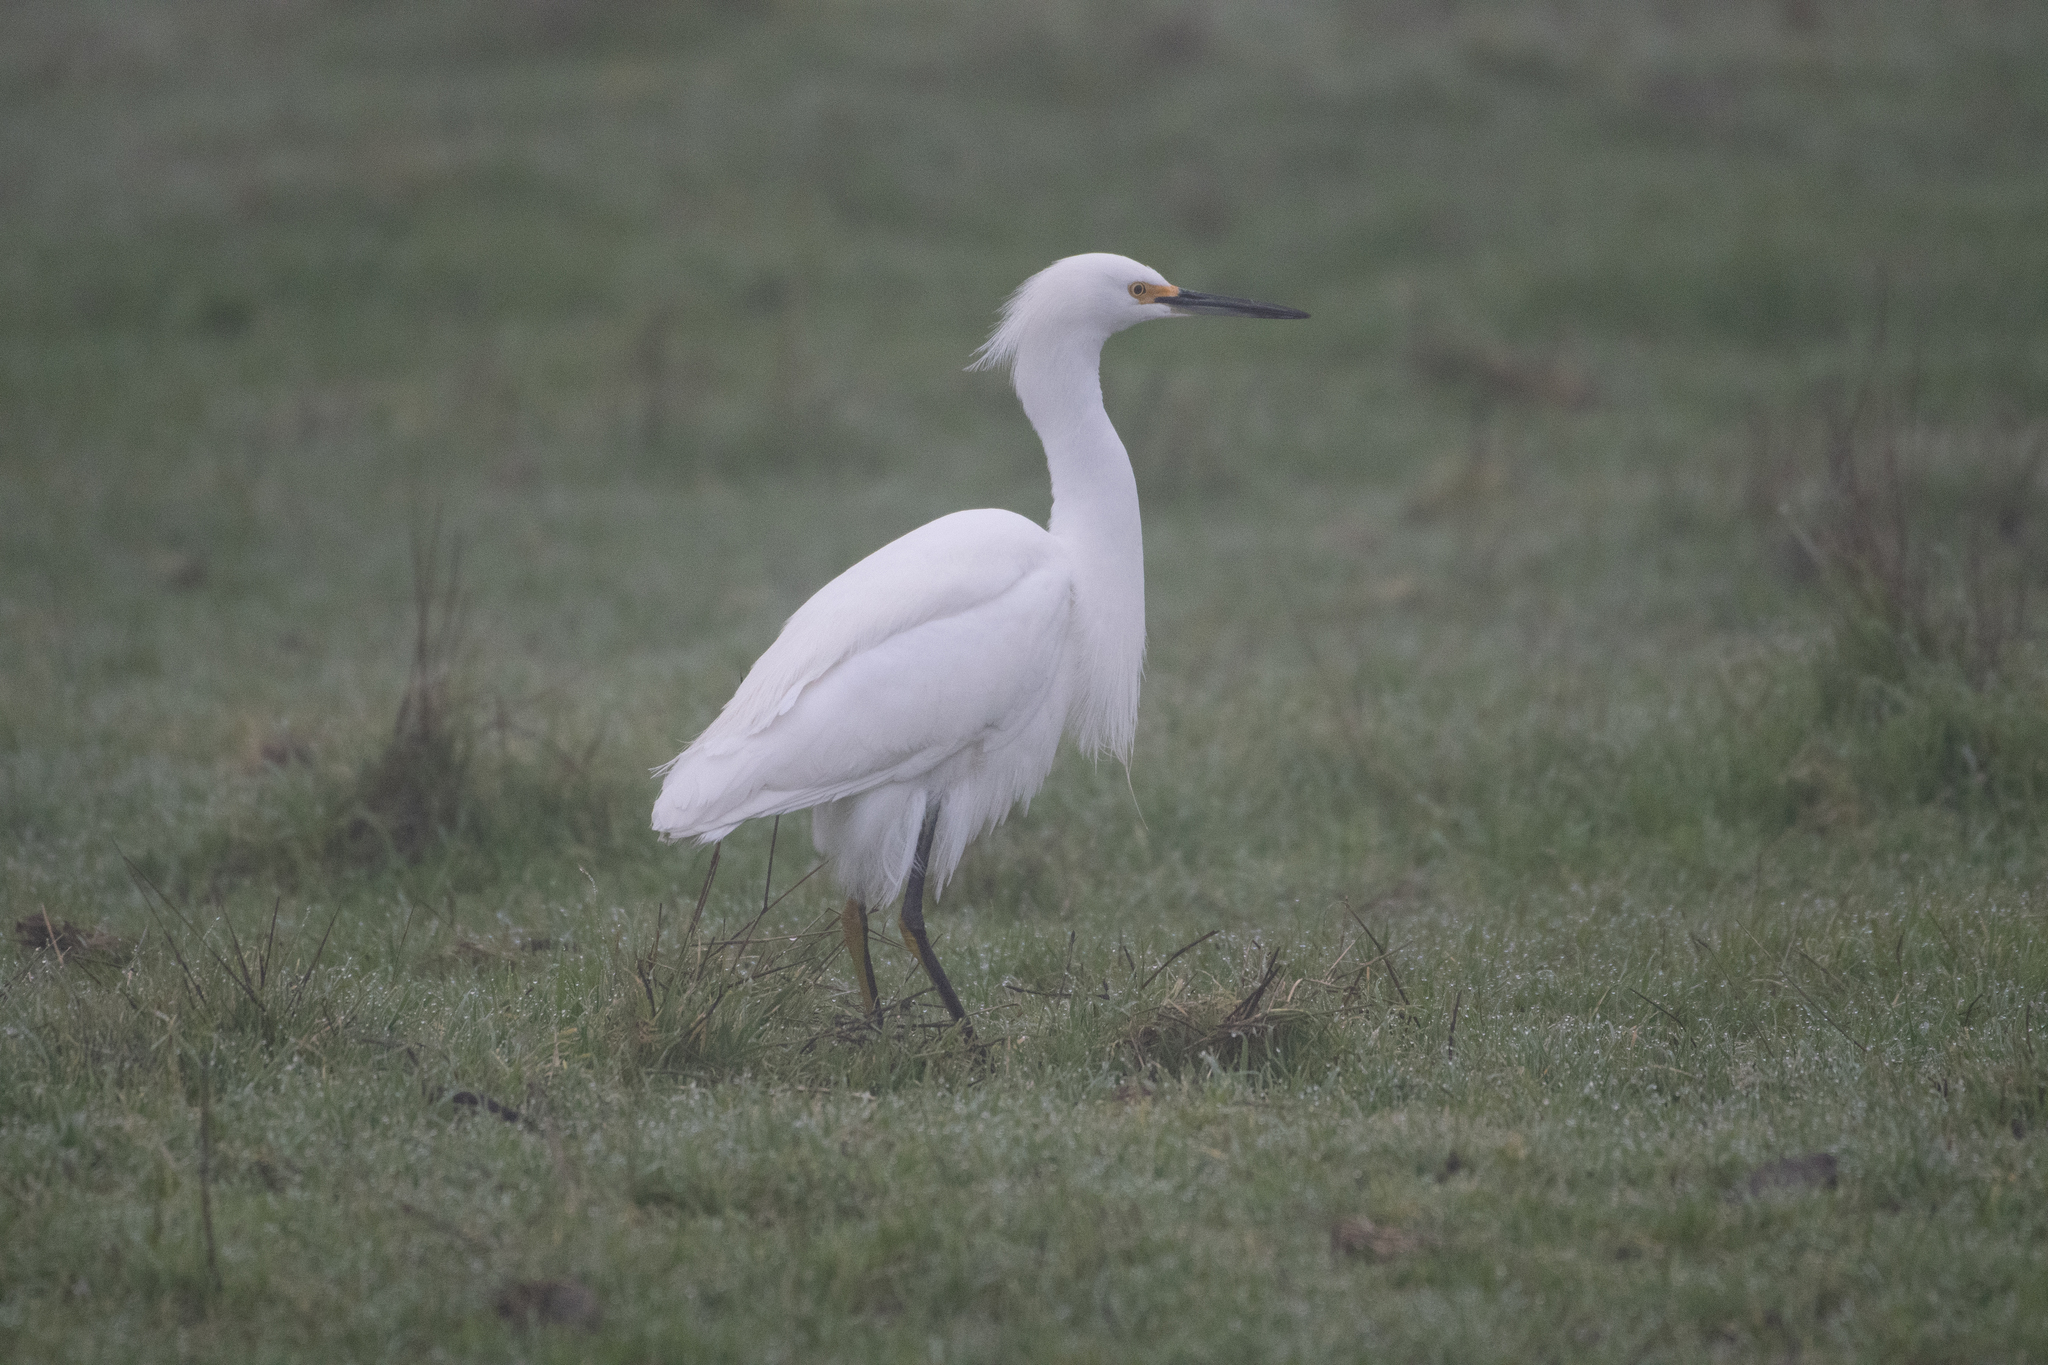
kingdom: Animalia
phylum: Chordata
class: Aves
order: Pelecaniformes
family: Ardeidae
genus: Egretta
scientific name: Egretta thula
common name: Snowy egret
